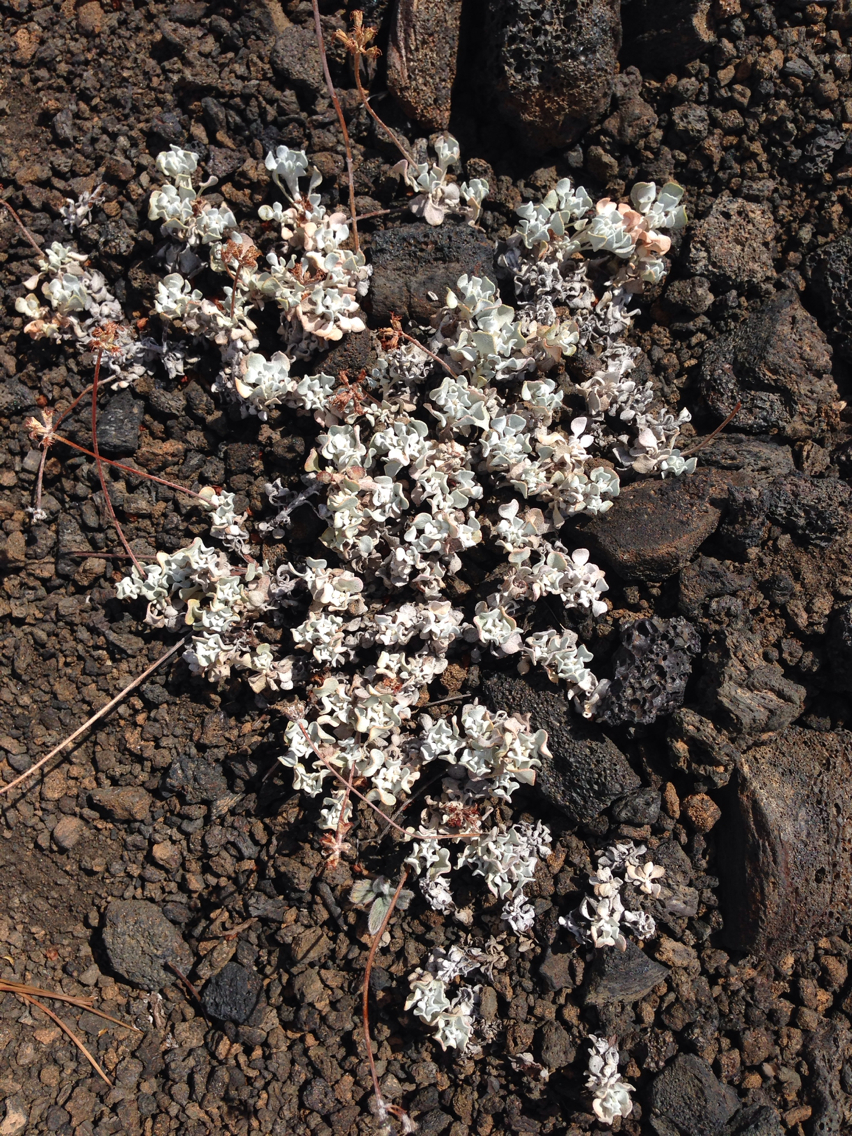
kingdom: Plantae
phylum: Tracheophyta
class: Magnoliopsida
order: Caryophyllales
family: Polygonaceae
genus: Eriogonum
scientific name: Eriogonum ovalifolium
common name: Cushion buckwheat
